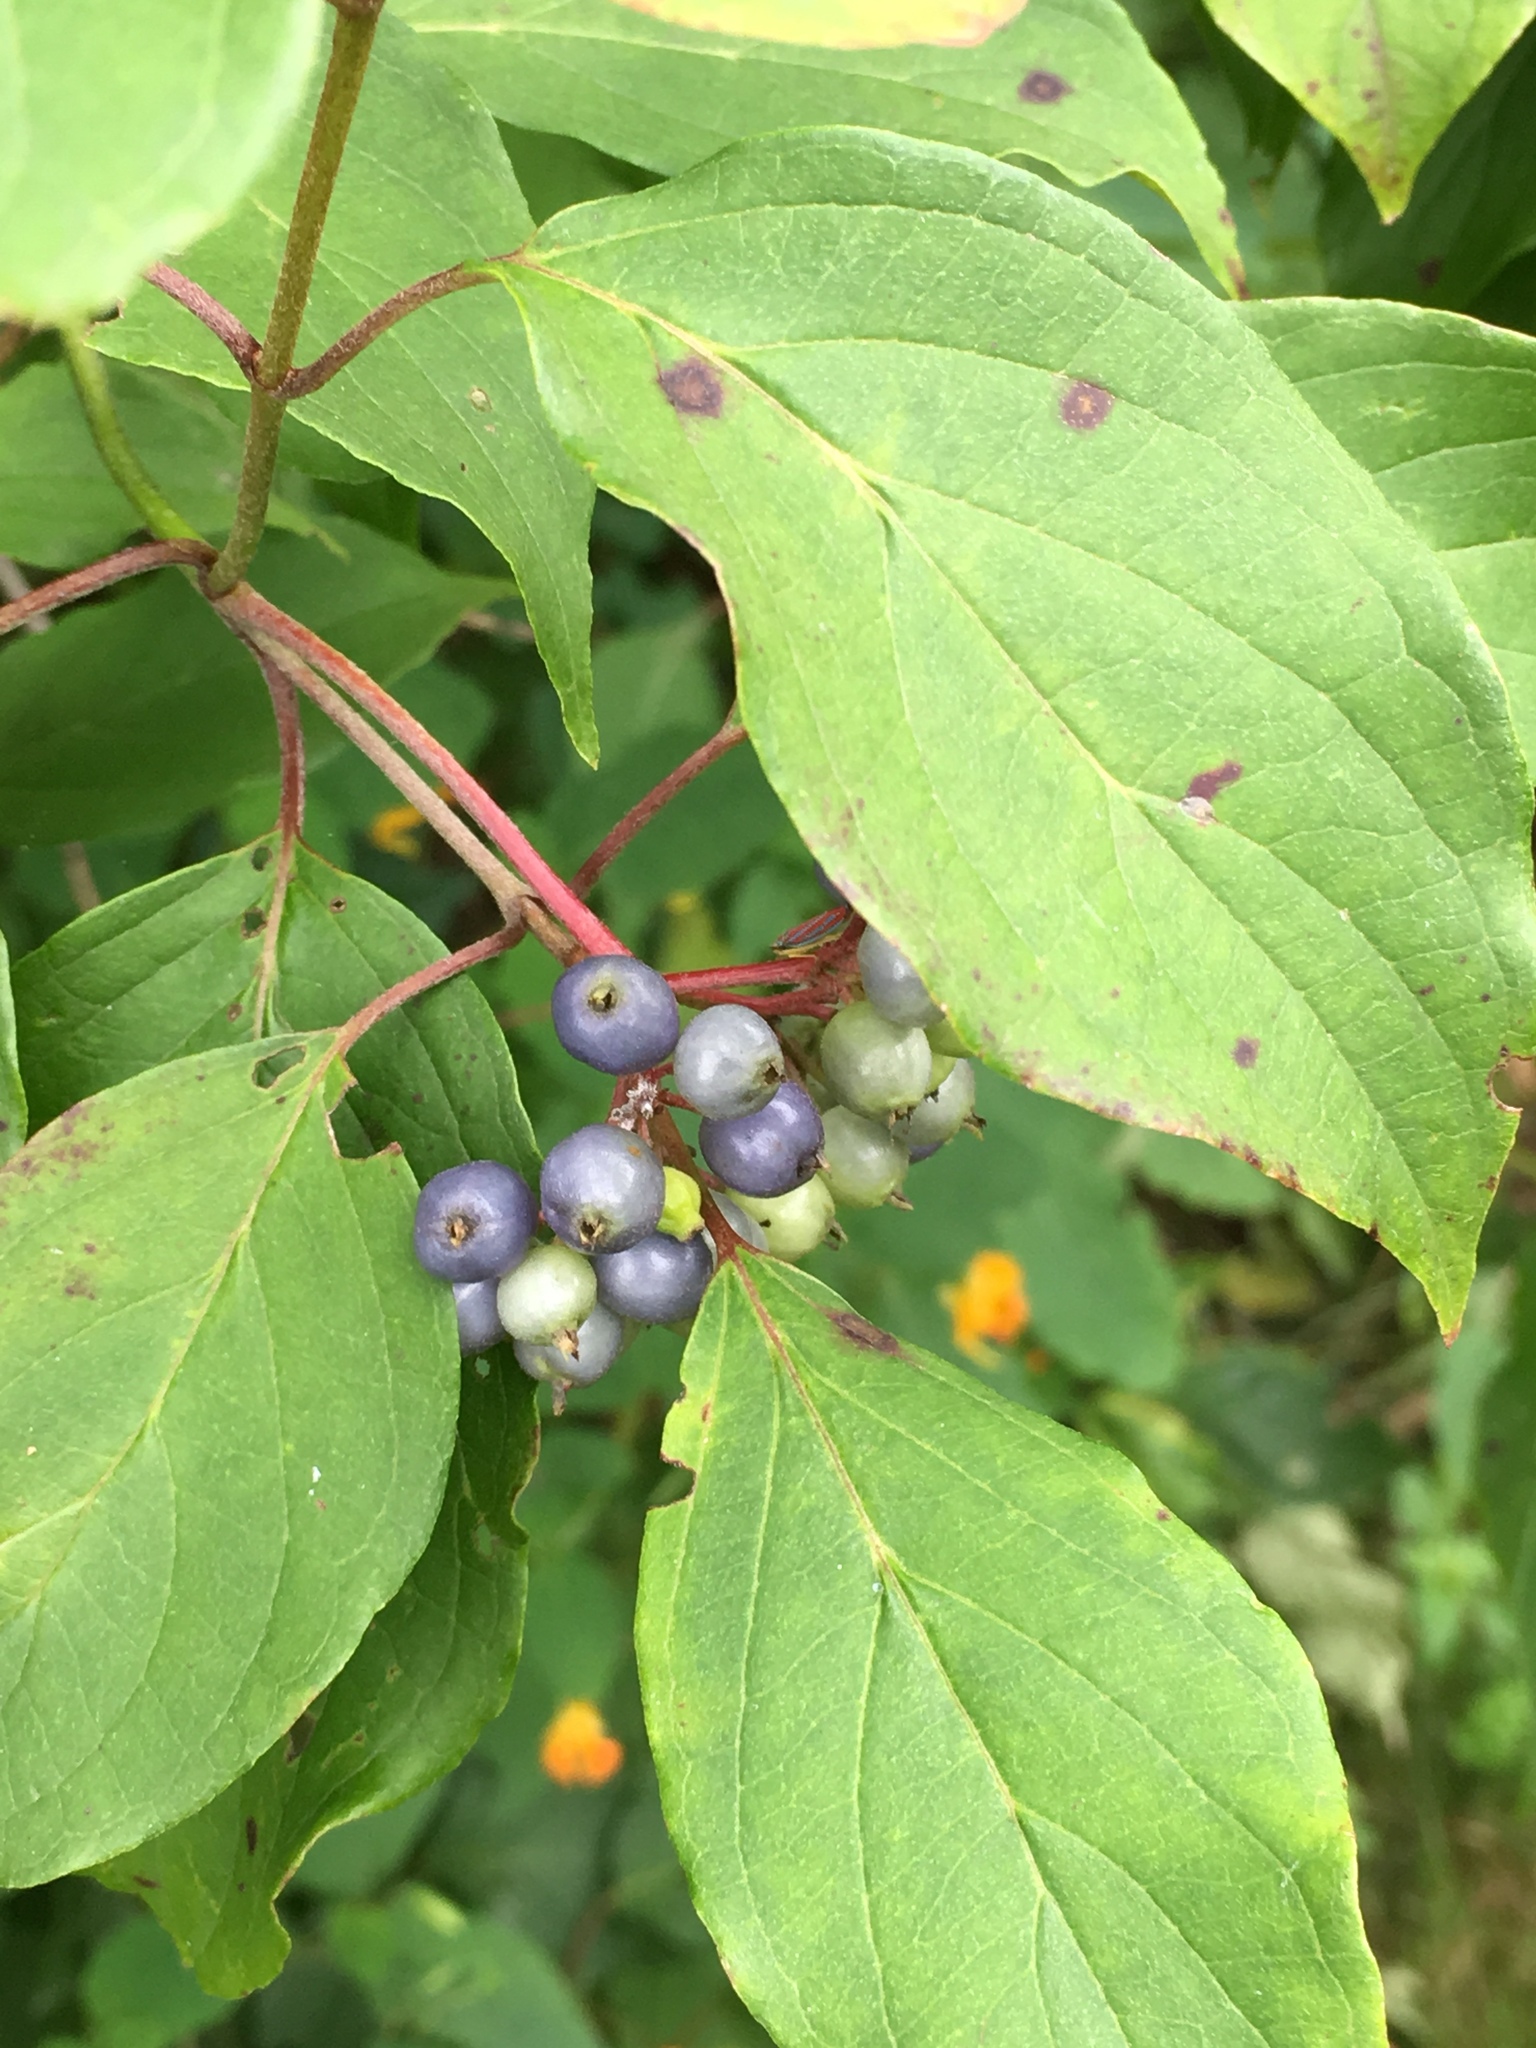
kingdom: Plantae
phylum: Tracheophyta
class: Magnoliopsida
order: Cornales
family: Cornaceae
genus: Cornus
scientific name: Cornus amomum
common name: Silky dogwood
